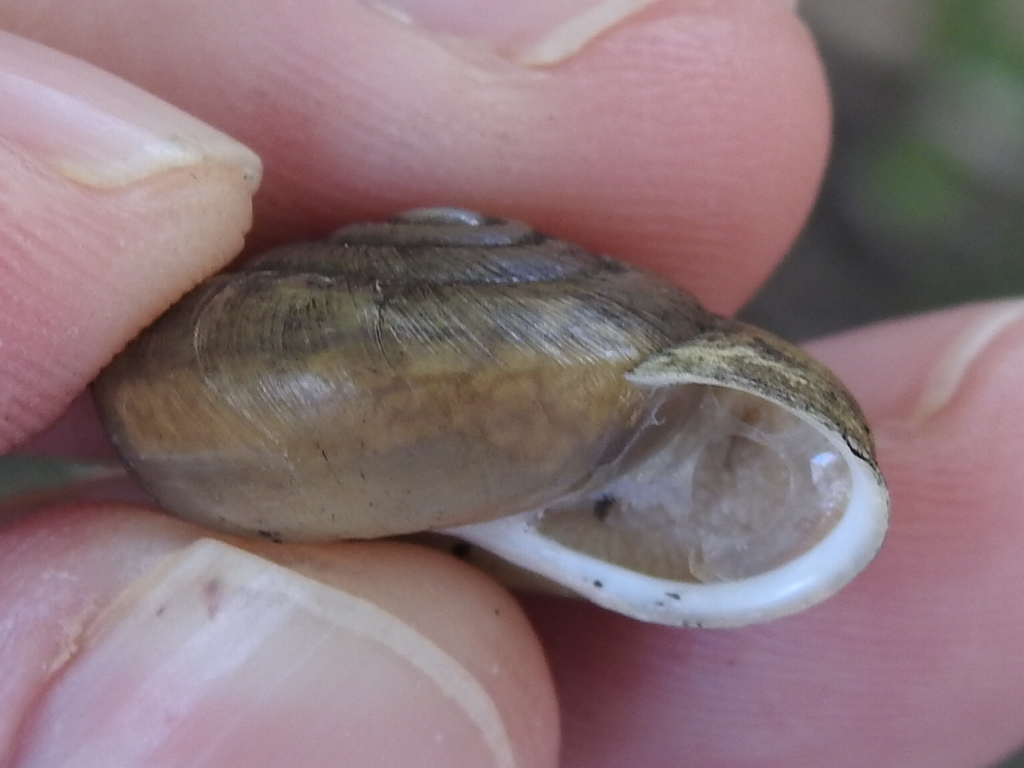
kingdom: Animalia
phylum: Mollusca
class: Gastropoda
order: Stylommatophora
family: Polygyridae
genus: Patera
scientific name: Patera roemeri
